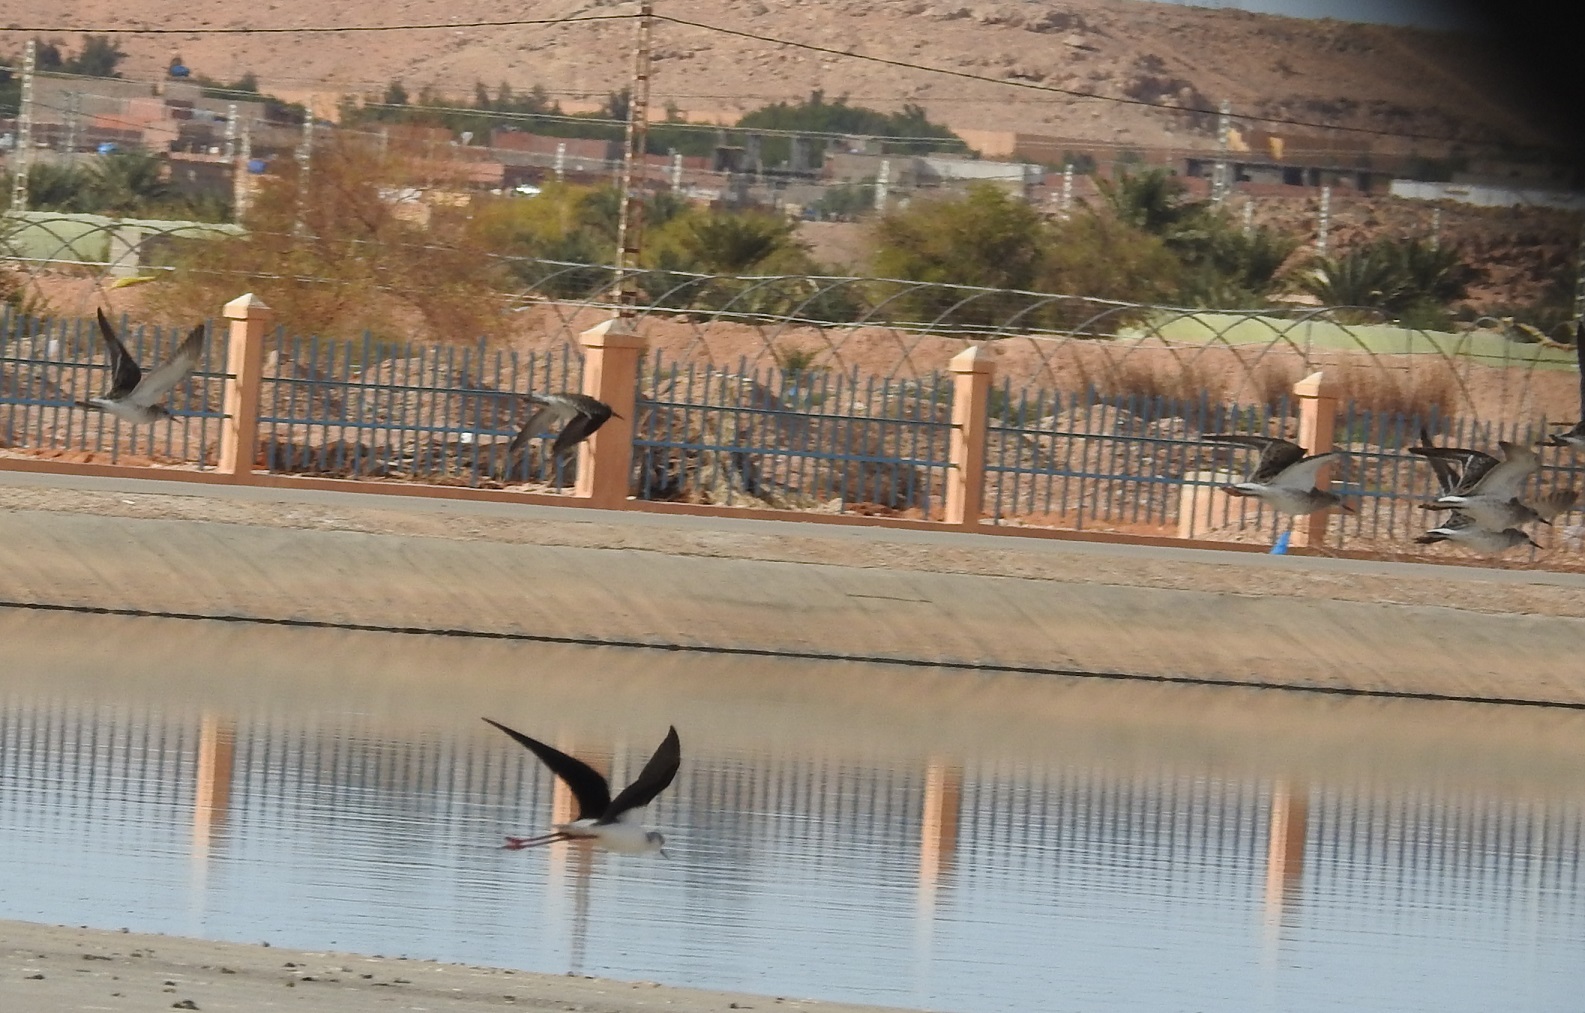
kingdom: Animalia
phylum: Chordata
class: Aves
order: Charadriiformes
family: Recurvirostridae
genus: Himantopus
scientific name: Himantopus himantopus
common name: Black-winged stilt
